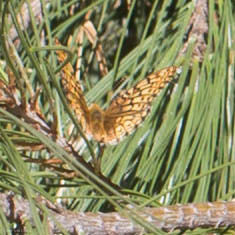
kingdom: Animalia
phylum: Arthropoda
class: Insecta
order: Lepidoptera
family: Nymphalidae
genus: Speyeria
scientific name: Speyeria callippe
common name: Callippe fritillary
